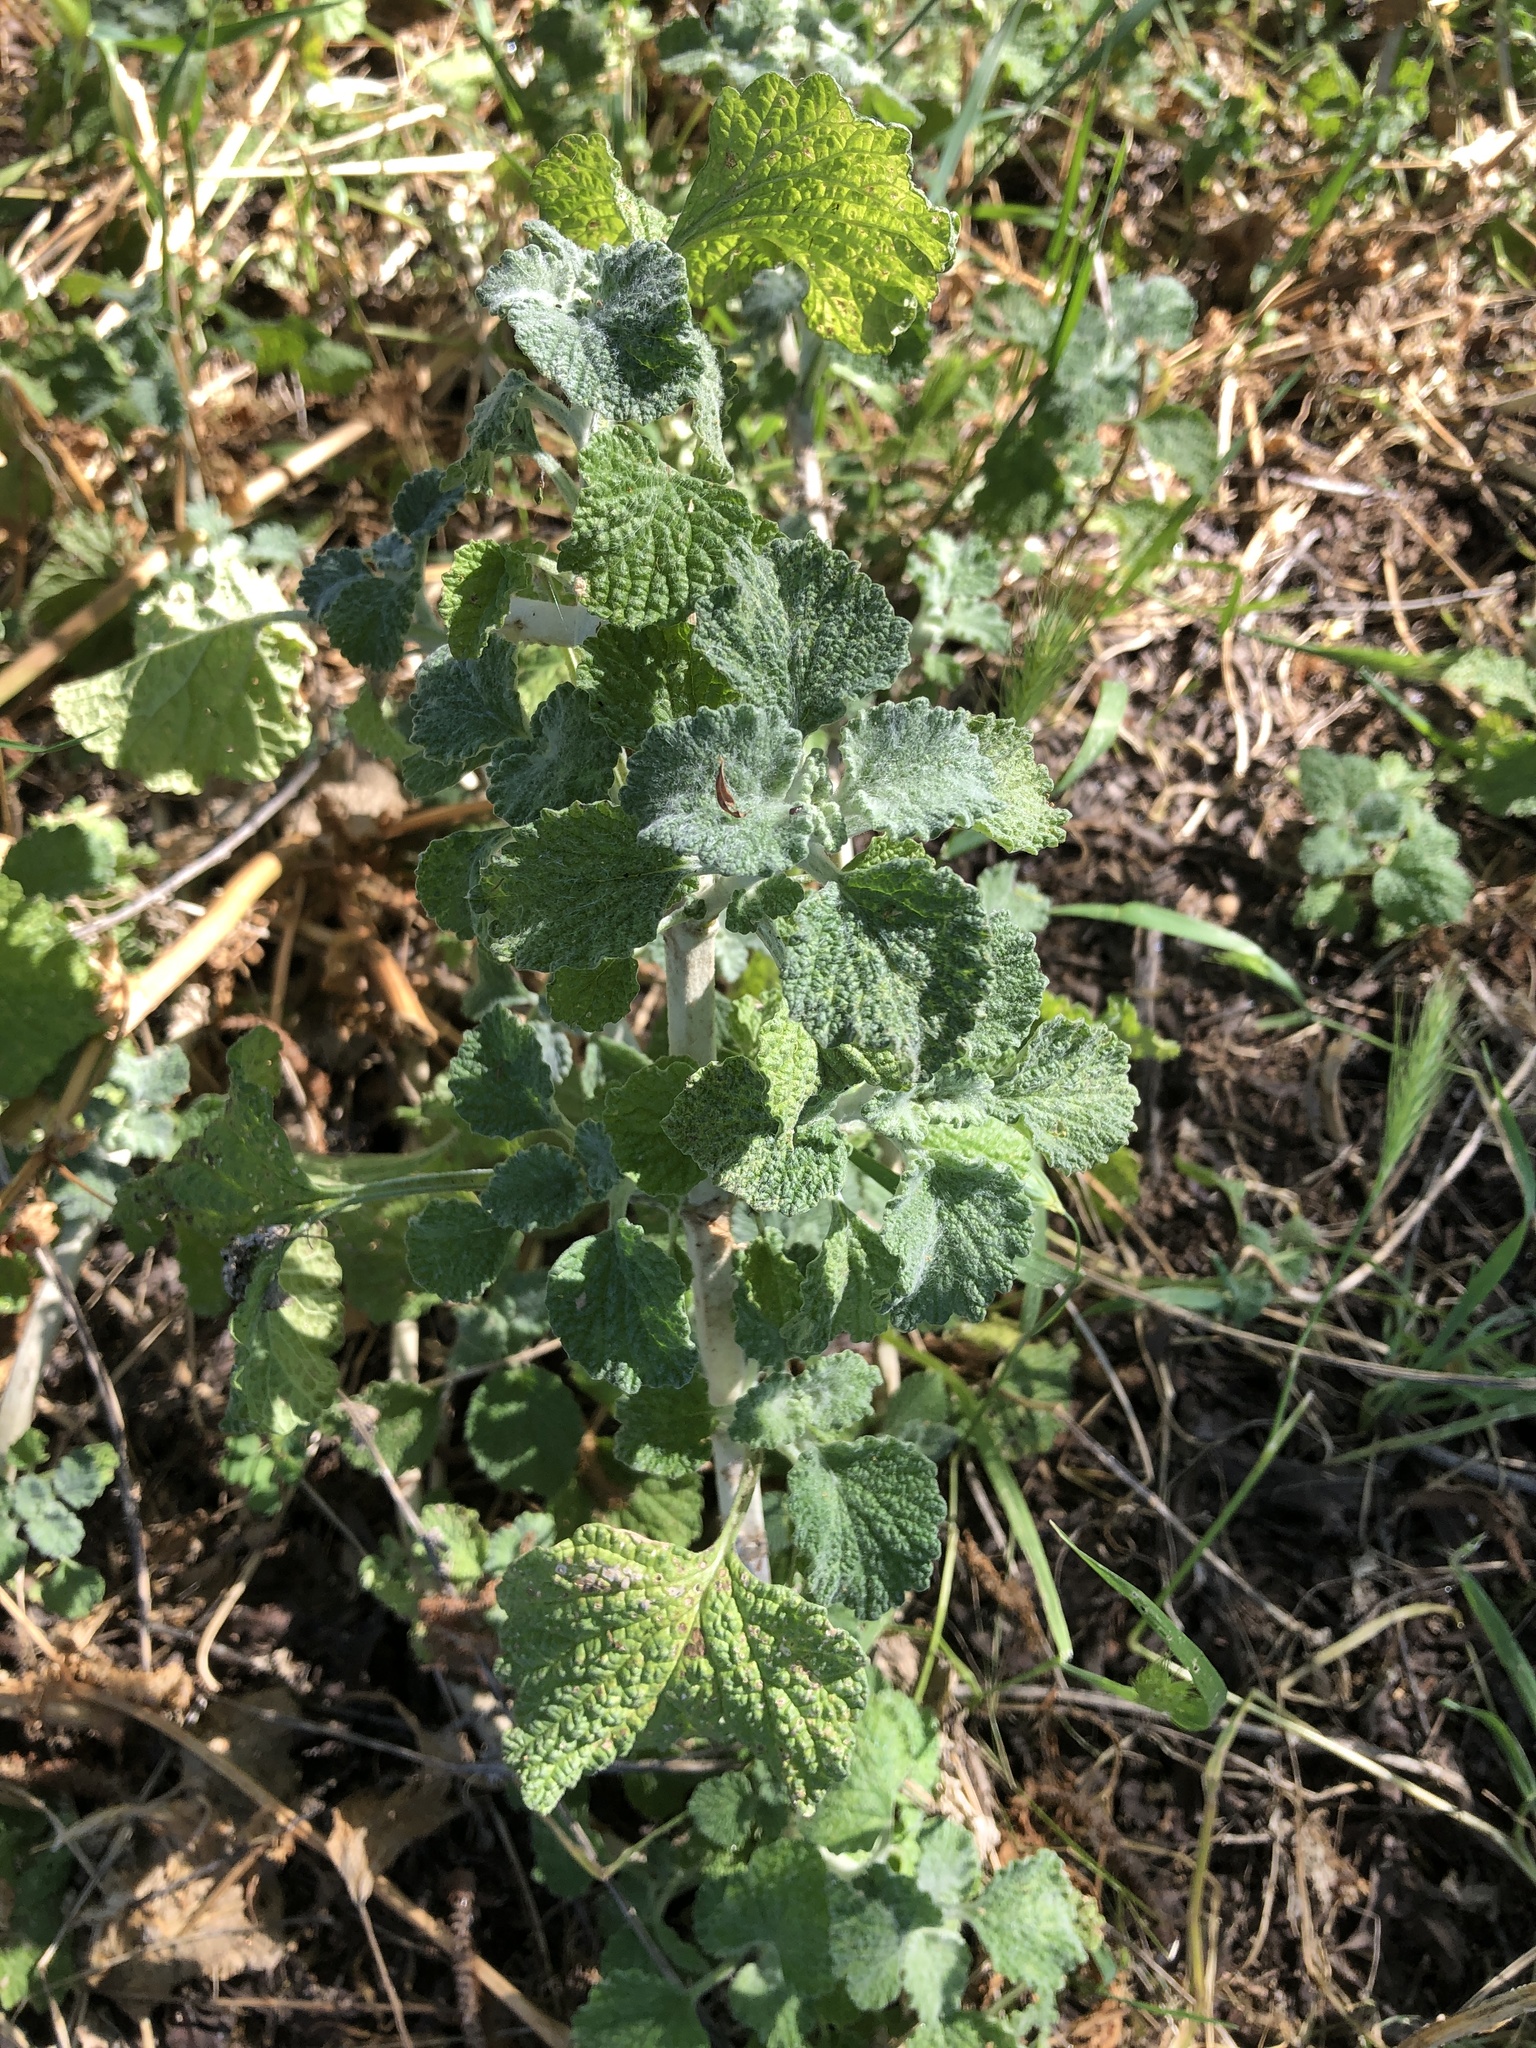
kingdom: Plantae
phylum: Tracheophyta
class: Magnoliopsida
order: Lamiales
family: Lamiaceae
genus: Marrubium
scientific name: Marrubium vulgare
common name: Horehound
